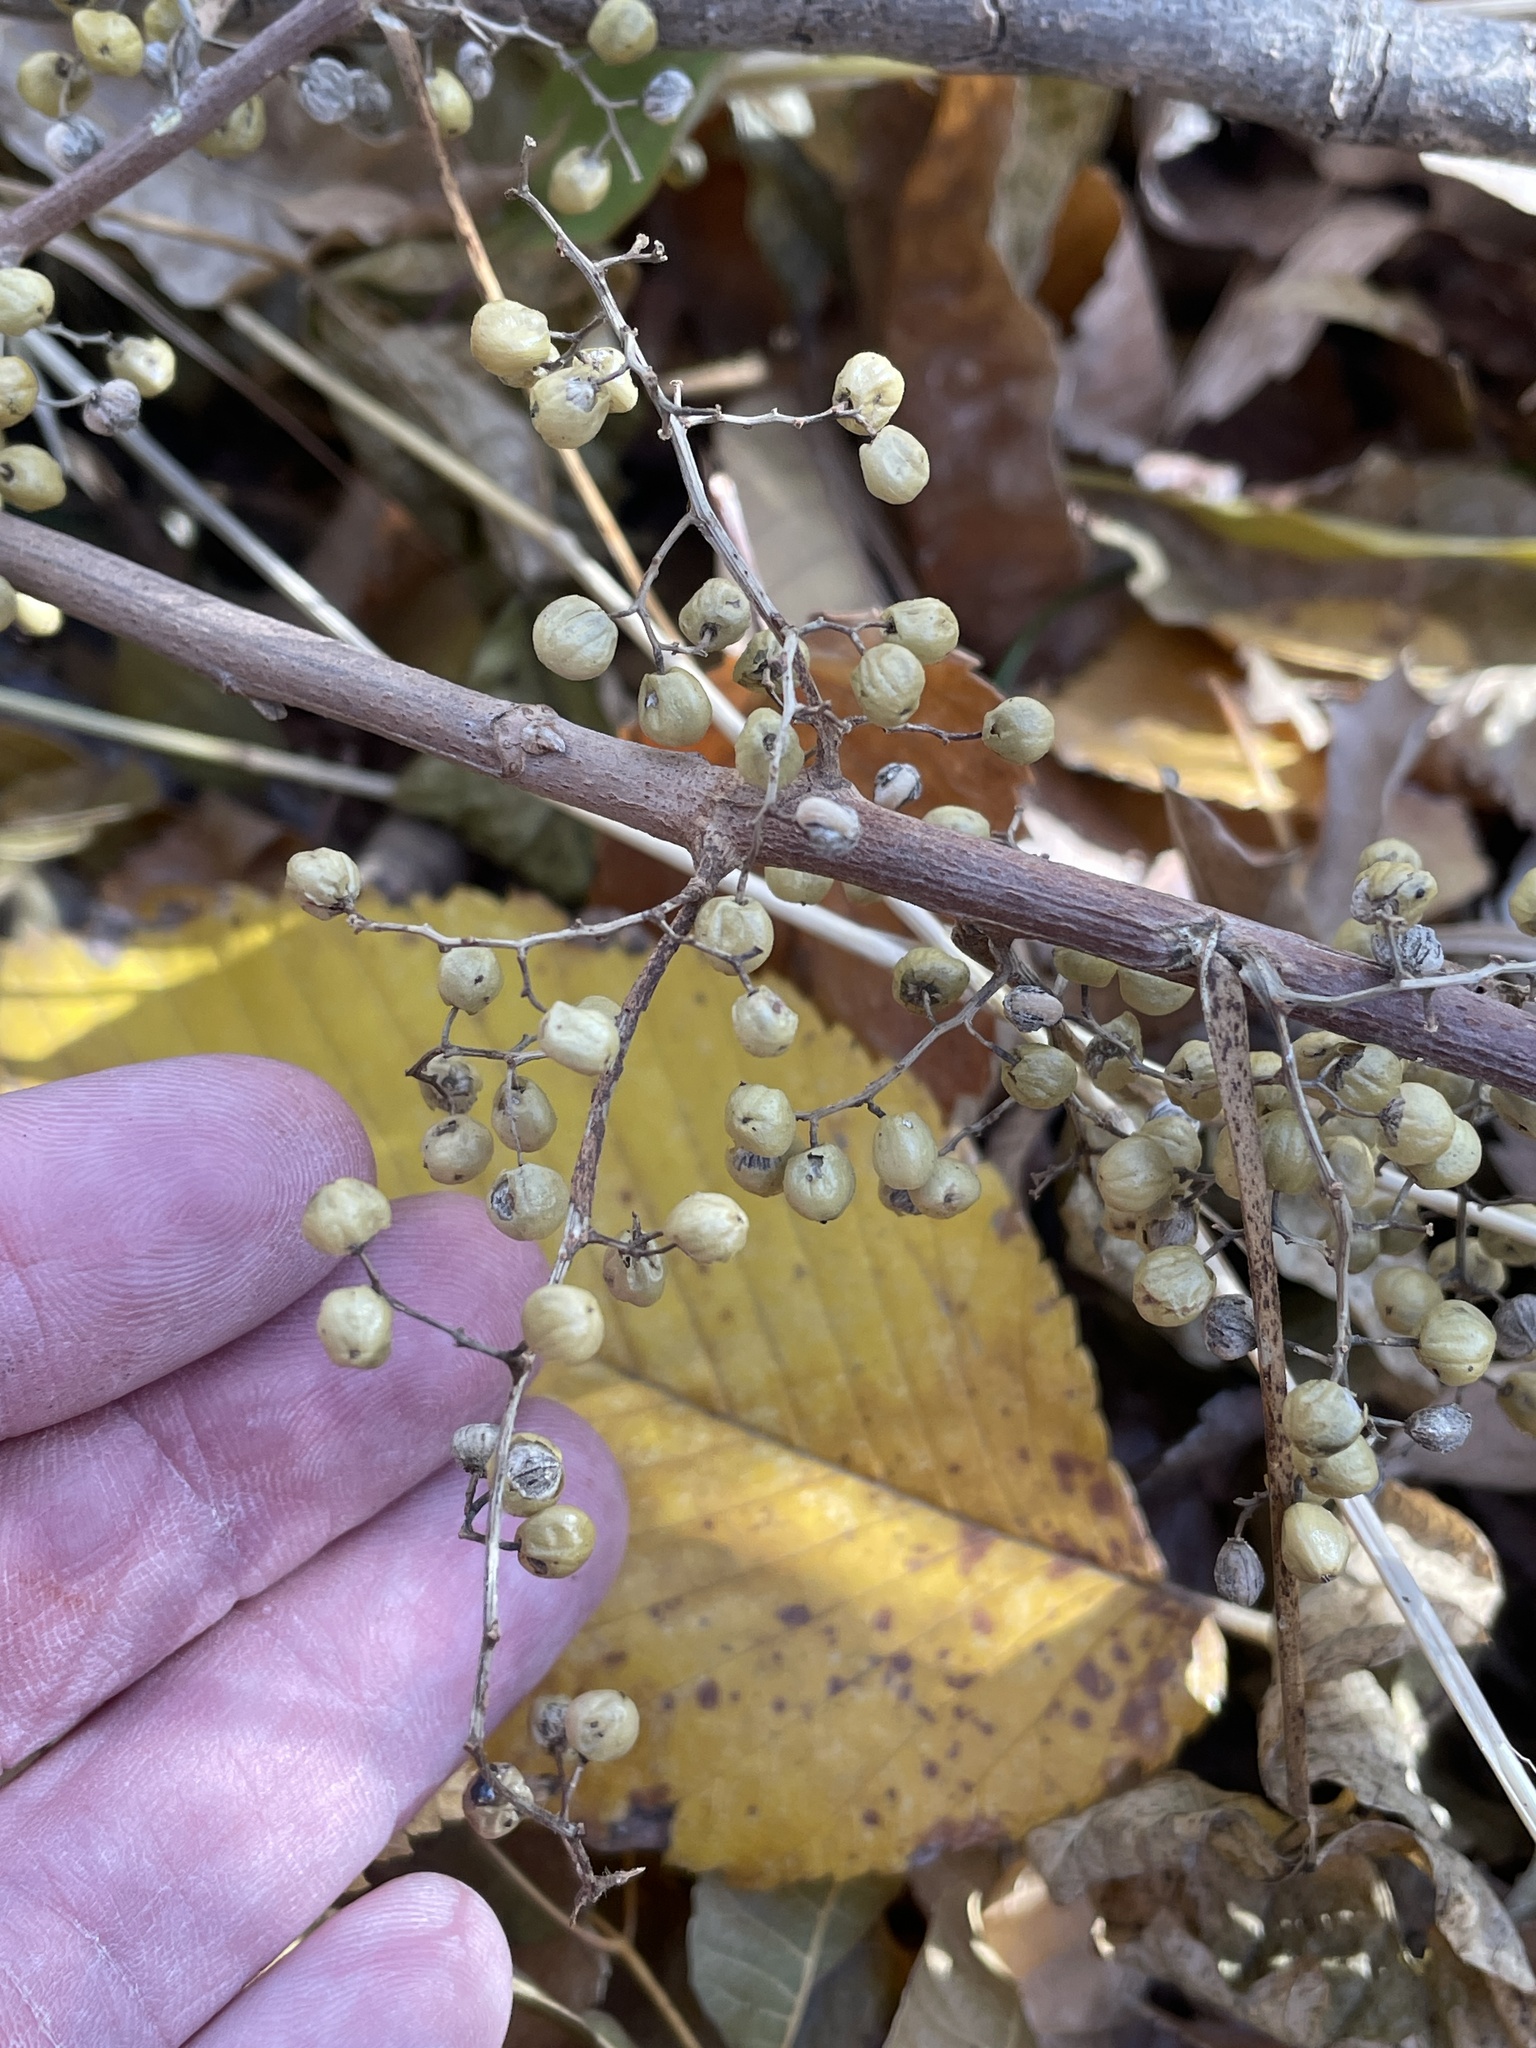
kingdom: Plantae
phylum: Tracheophyta
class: Magnoliopsida
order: Sapindales
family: Anacardiaceae
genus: Toxicodendron
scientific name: Toxicodendron radicans
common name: Poison ivy
